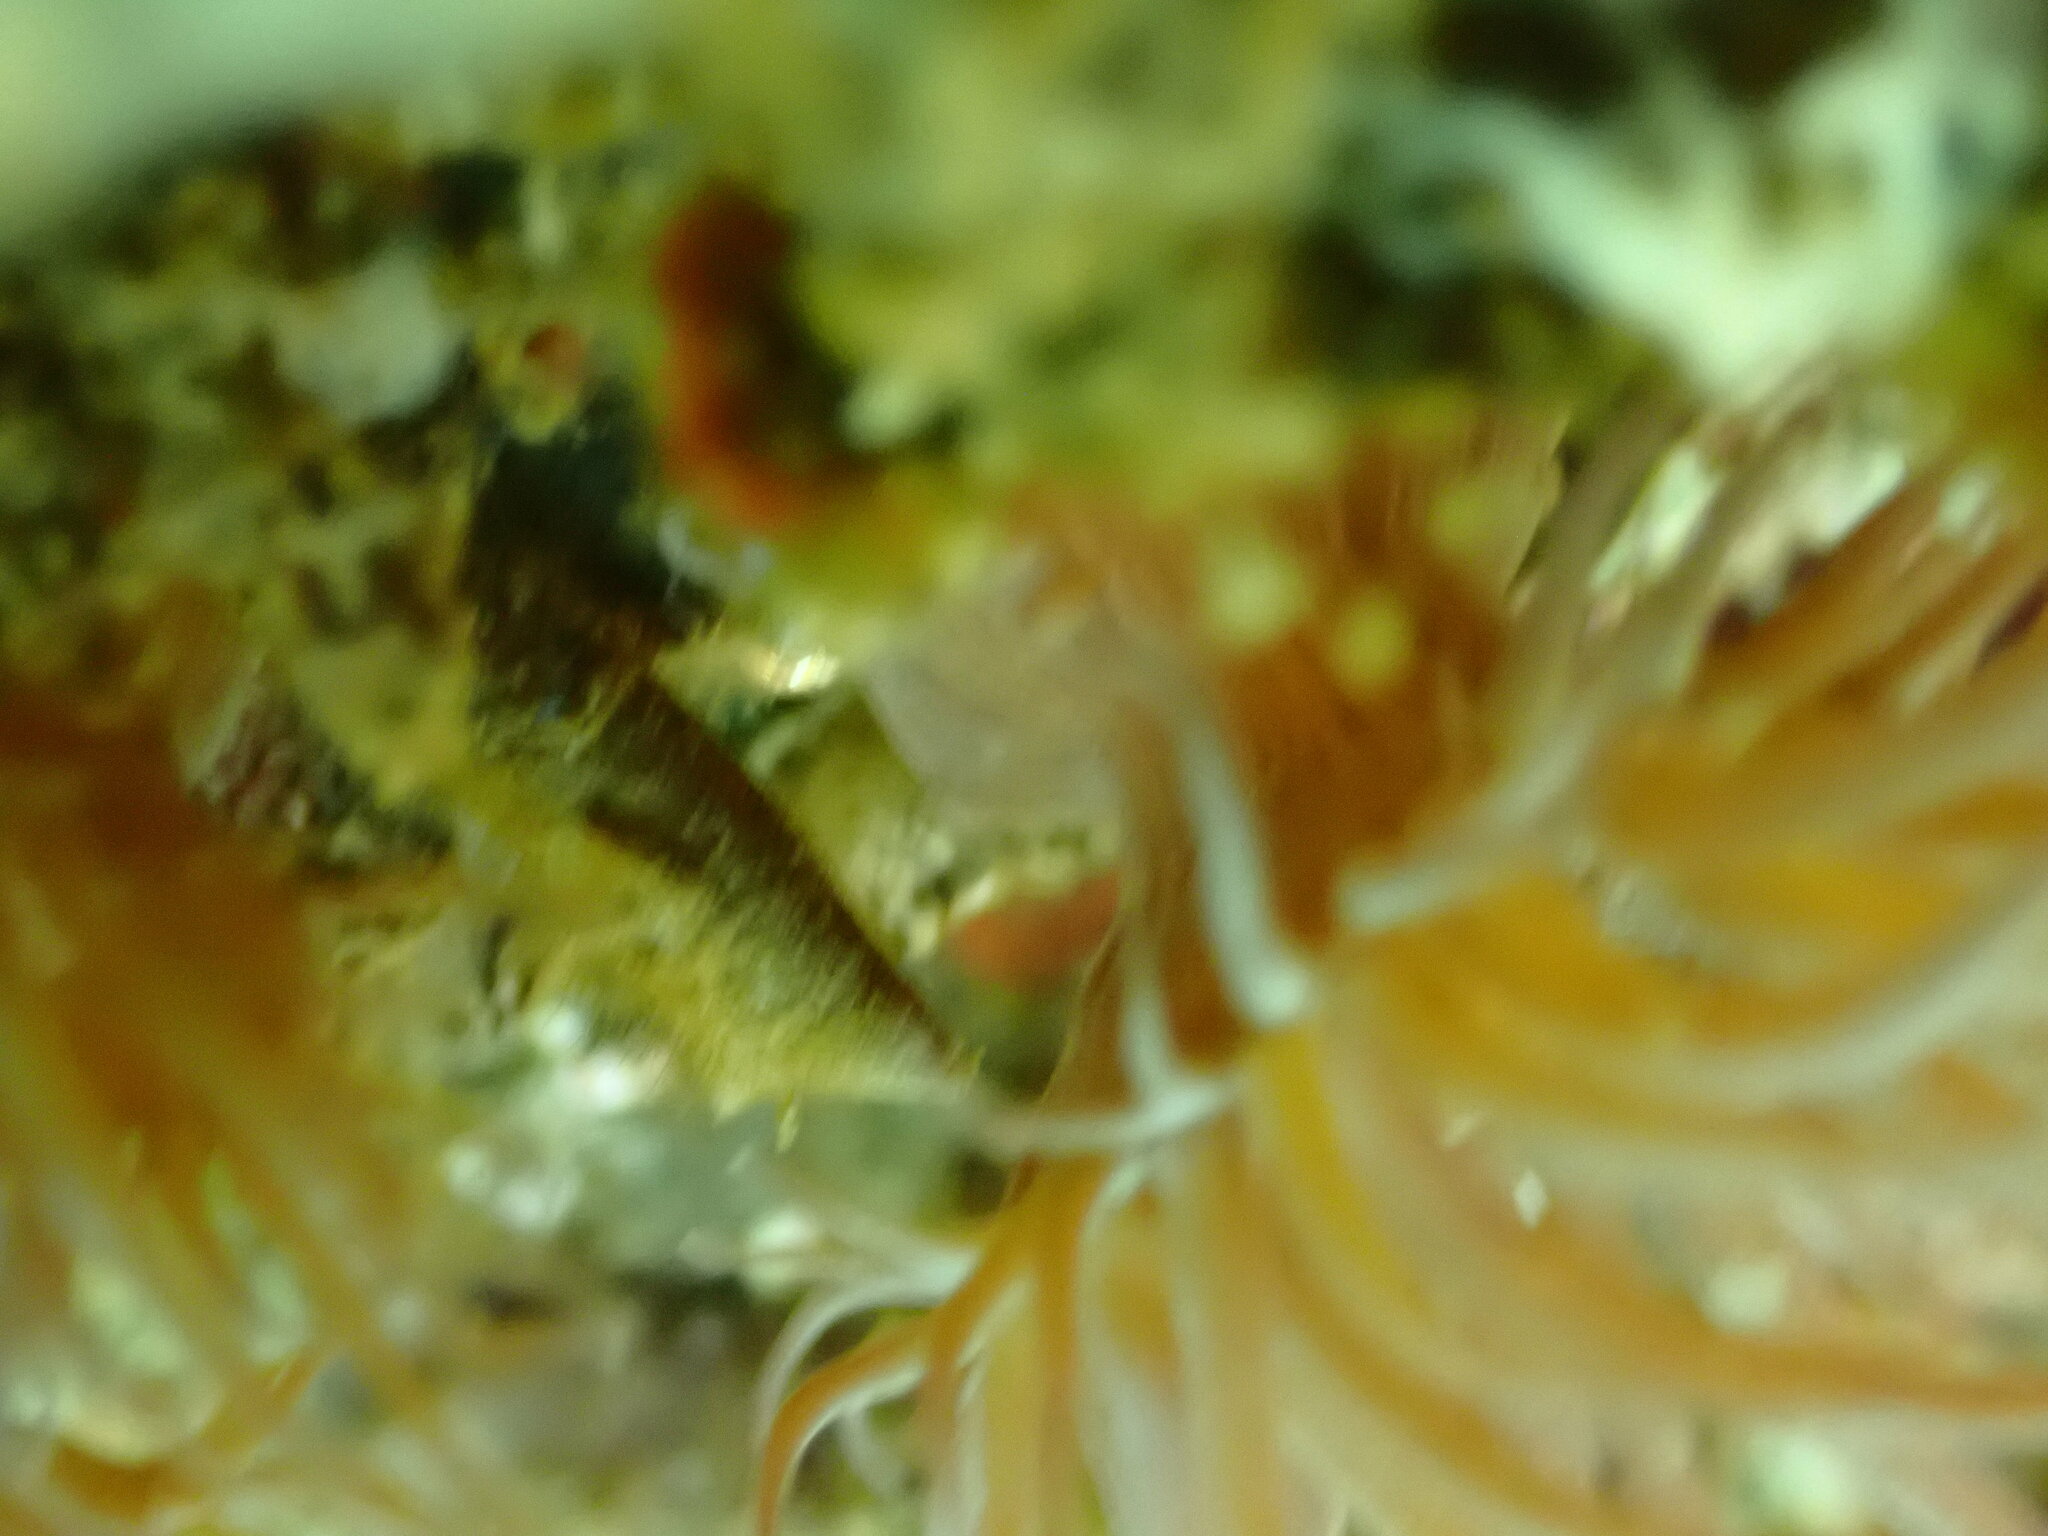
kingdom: Animalia
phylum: Cnidaria
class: Anthozoa
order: Actiniaria
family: Aiptasiidae
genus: Exaiptasia
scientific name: Exaiptasia diaphana
